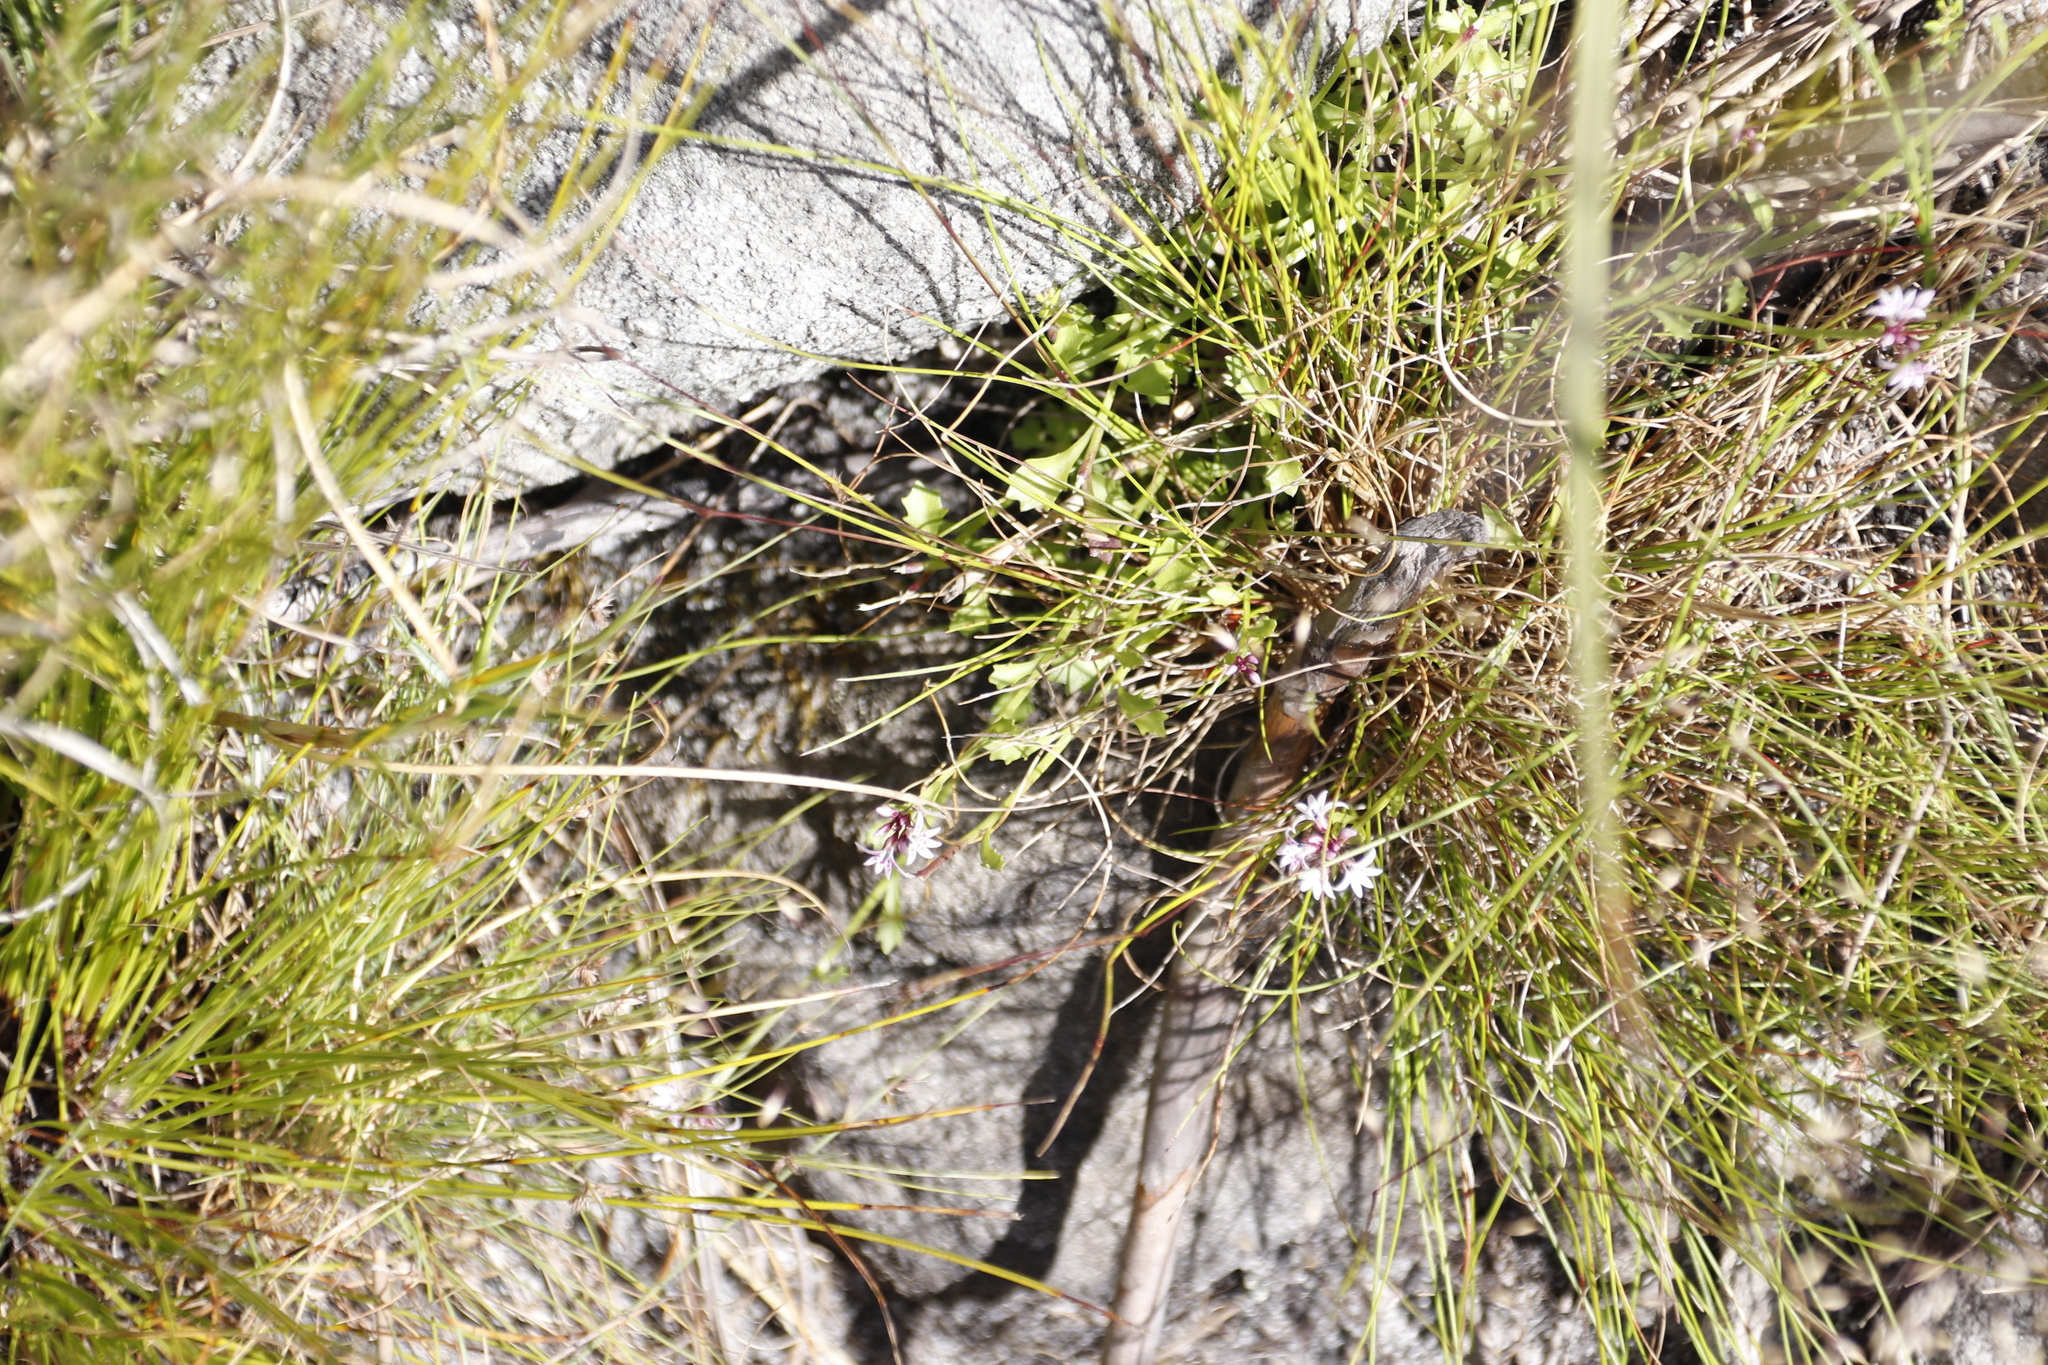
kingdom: Plantae
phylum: Tracheophyta
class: Magnoliopsida
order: Asterales
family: Campanulaceae
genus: Lobelia
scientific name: Lobelia jasionoides
